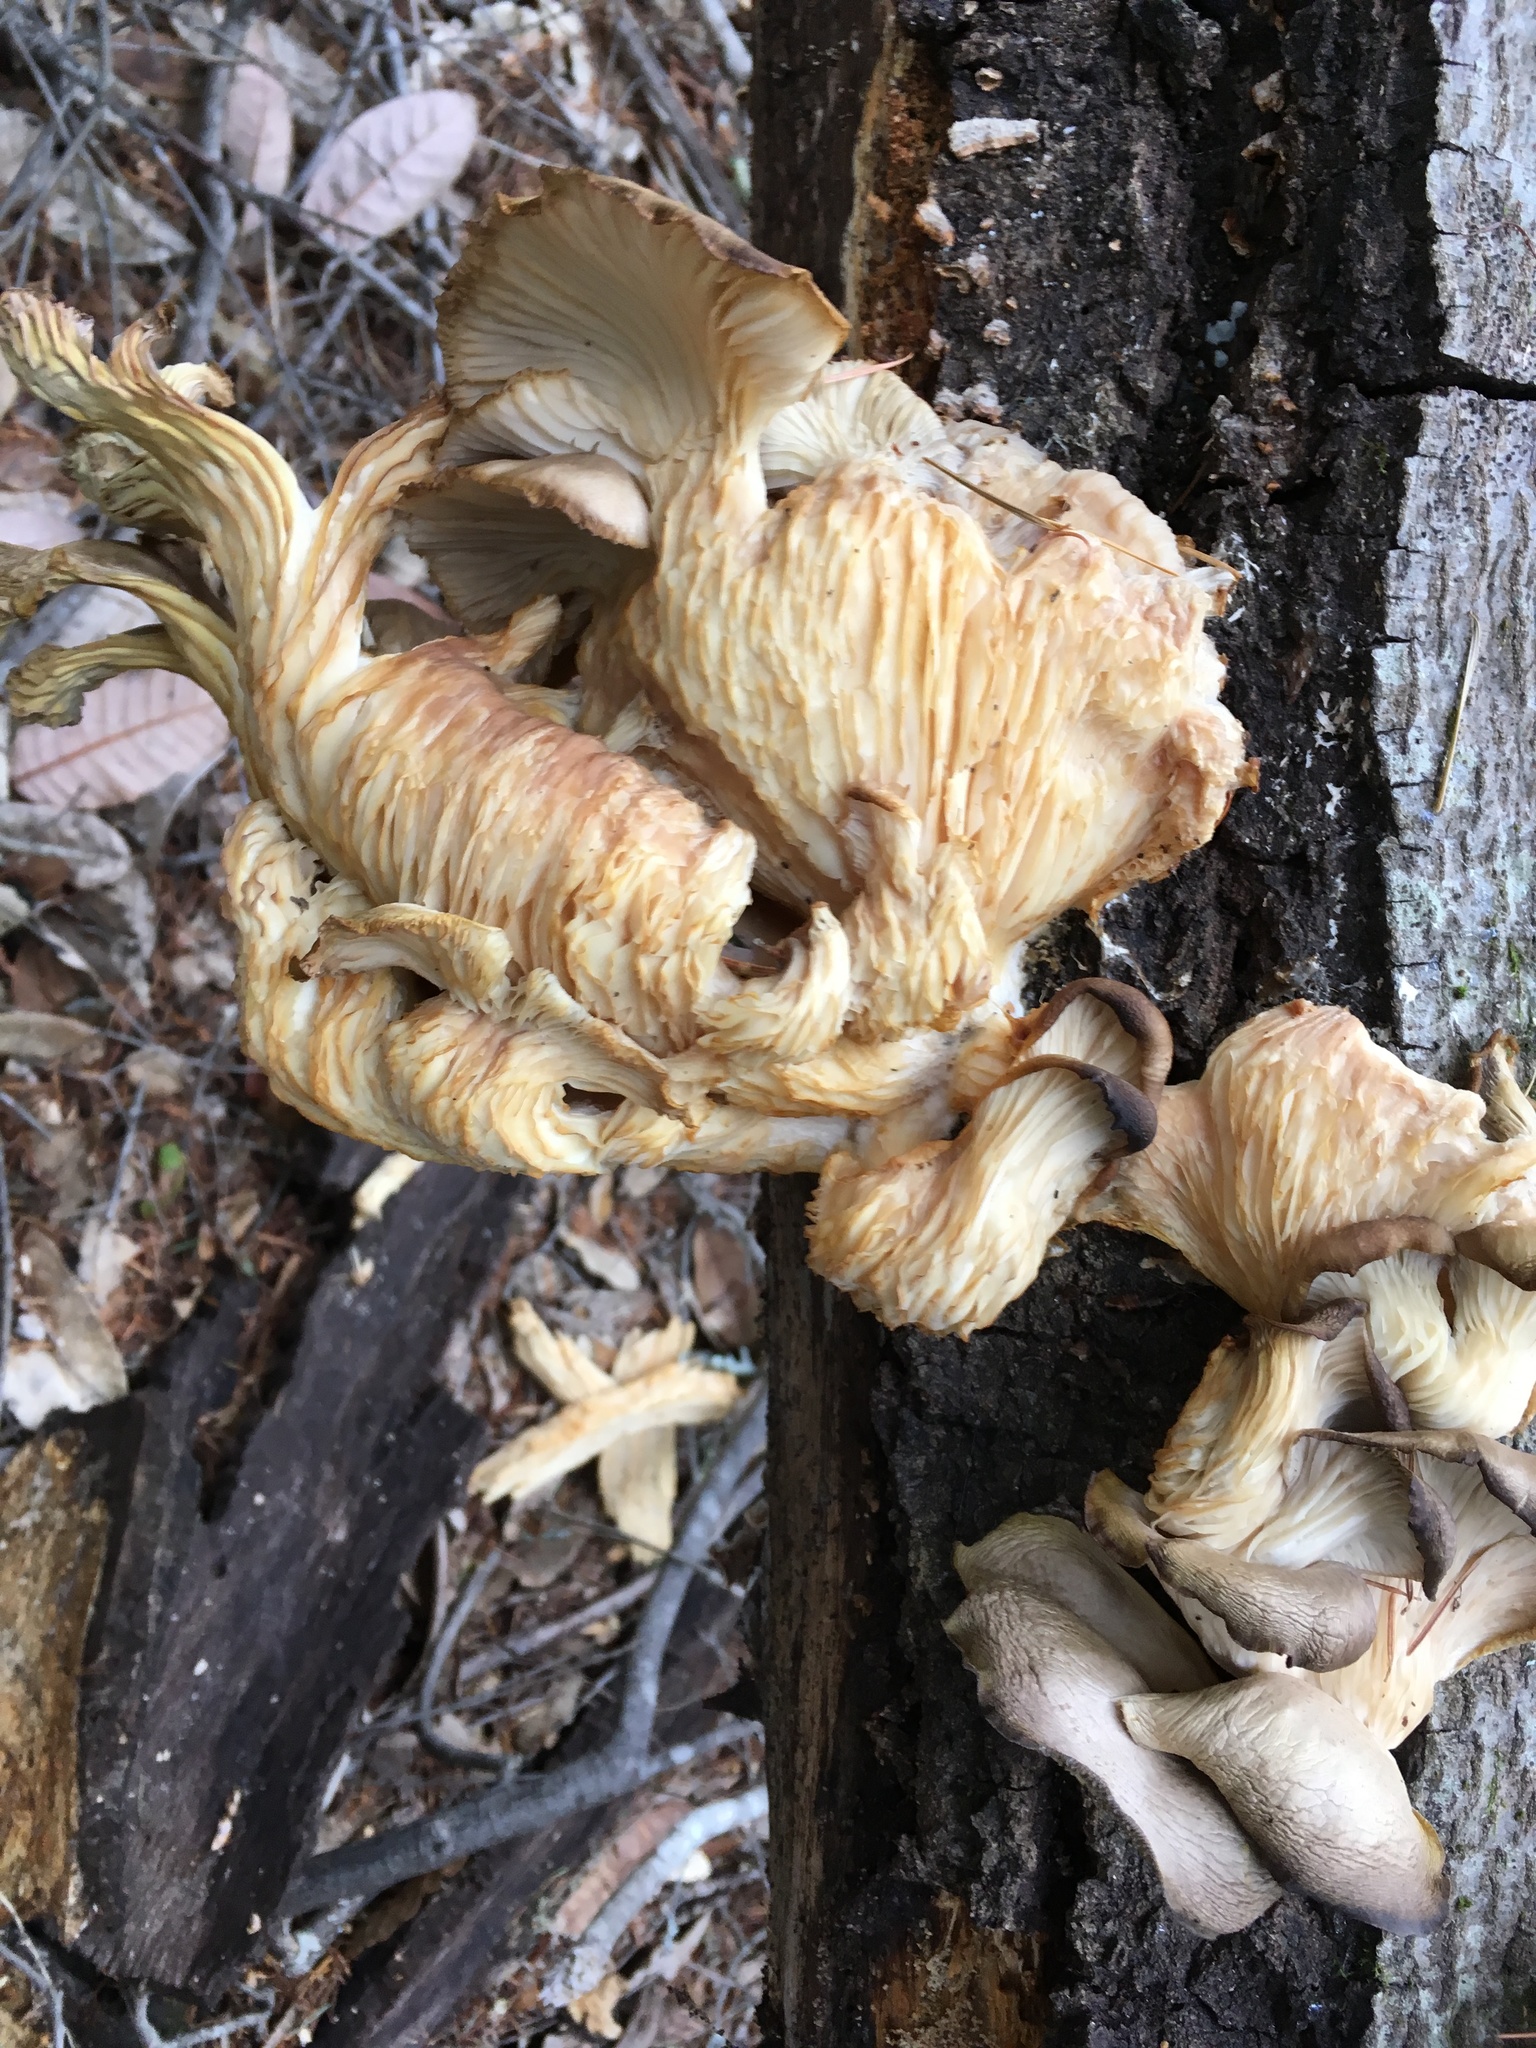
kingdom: Fungi
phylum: Basidiomycota
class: Agaricomycetes
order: Agaricales
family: Pleurotaceae
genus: Pleurotus
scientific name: Pleurotus ostreatus
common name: Oyster mushroom
